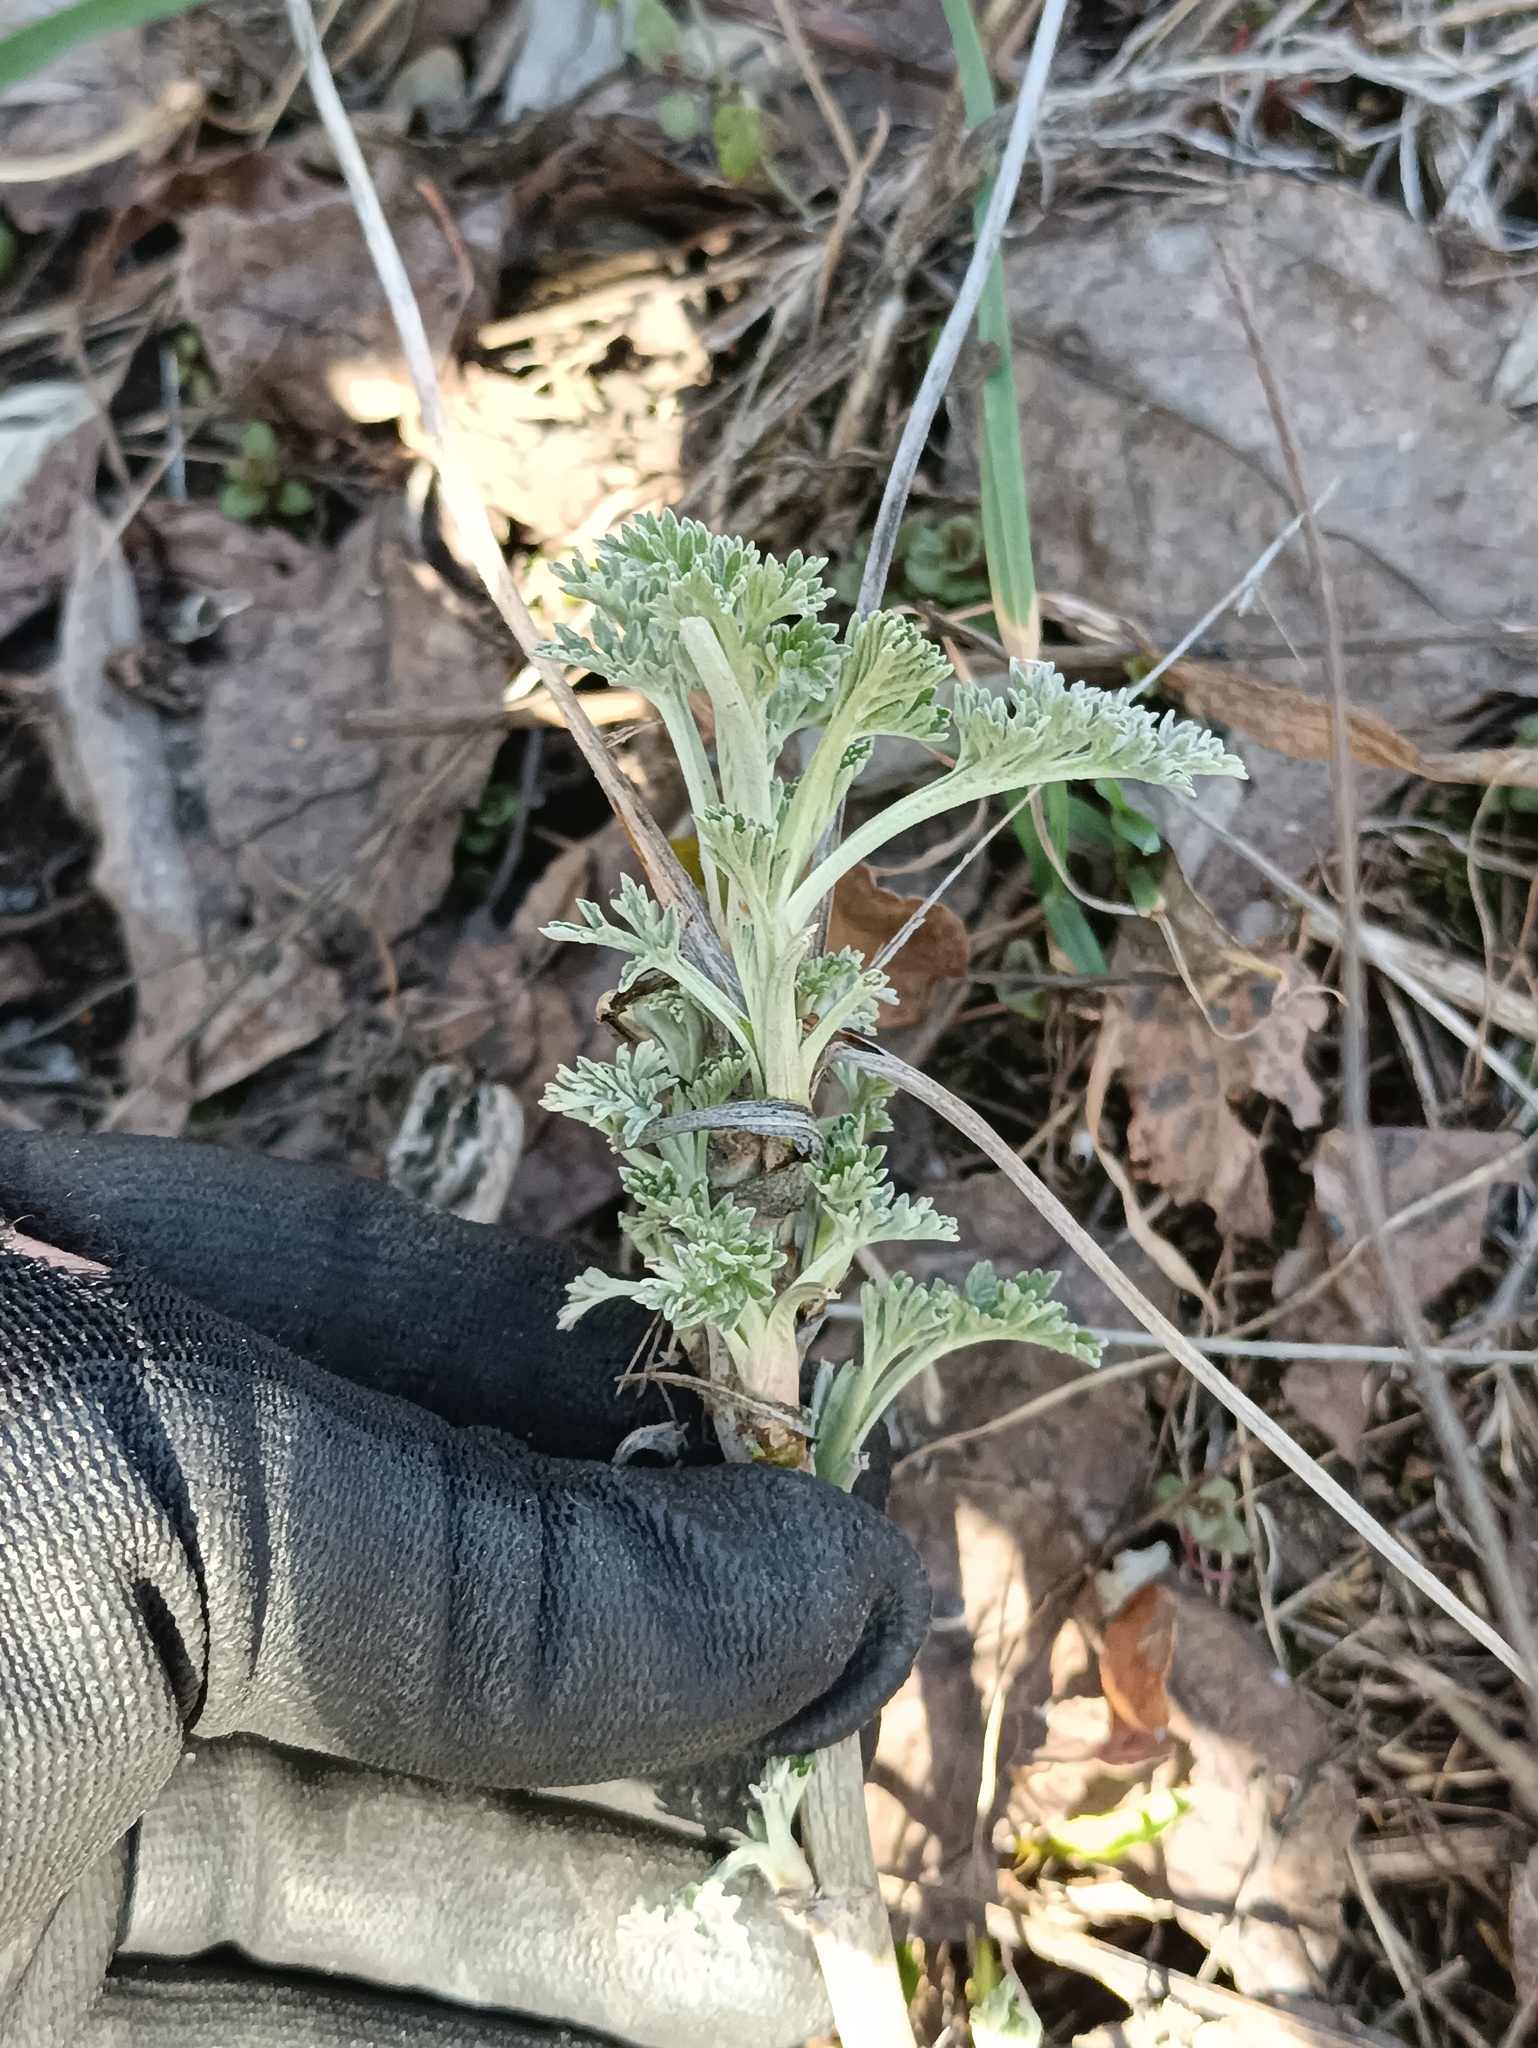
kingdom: Plantae
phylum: Tracheophyta
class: Magnoliopsida
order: Asterales
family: Asteraceae
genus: Artemisia
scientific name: Artemisia absinthium
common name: Wormwood
